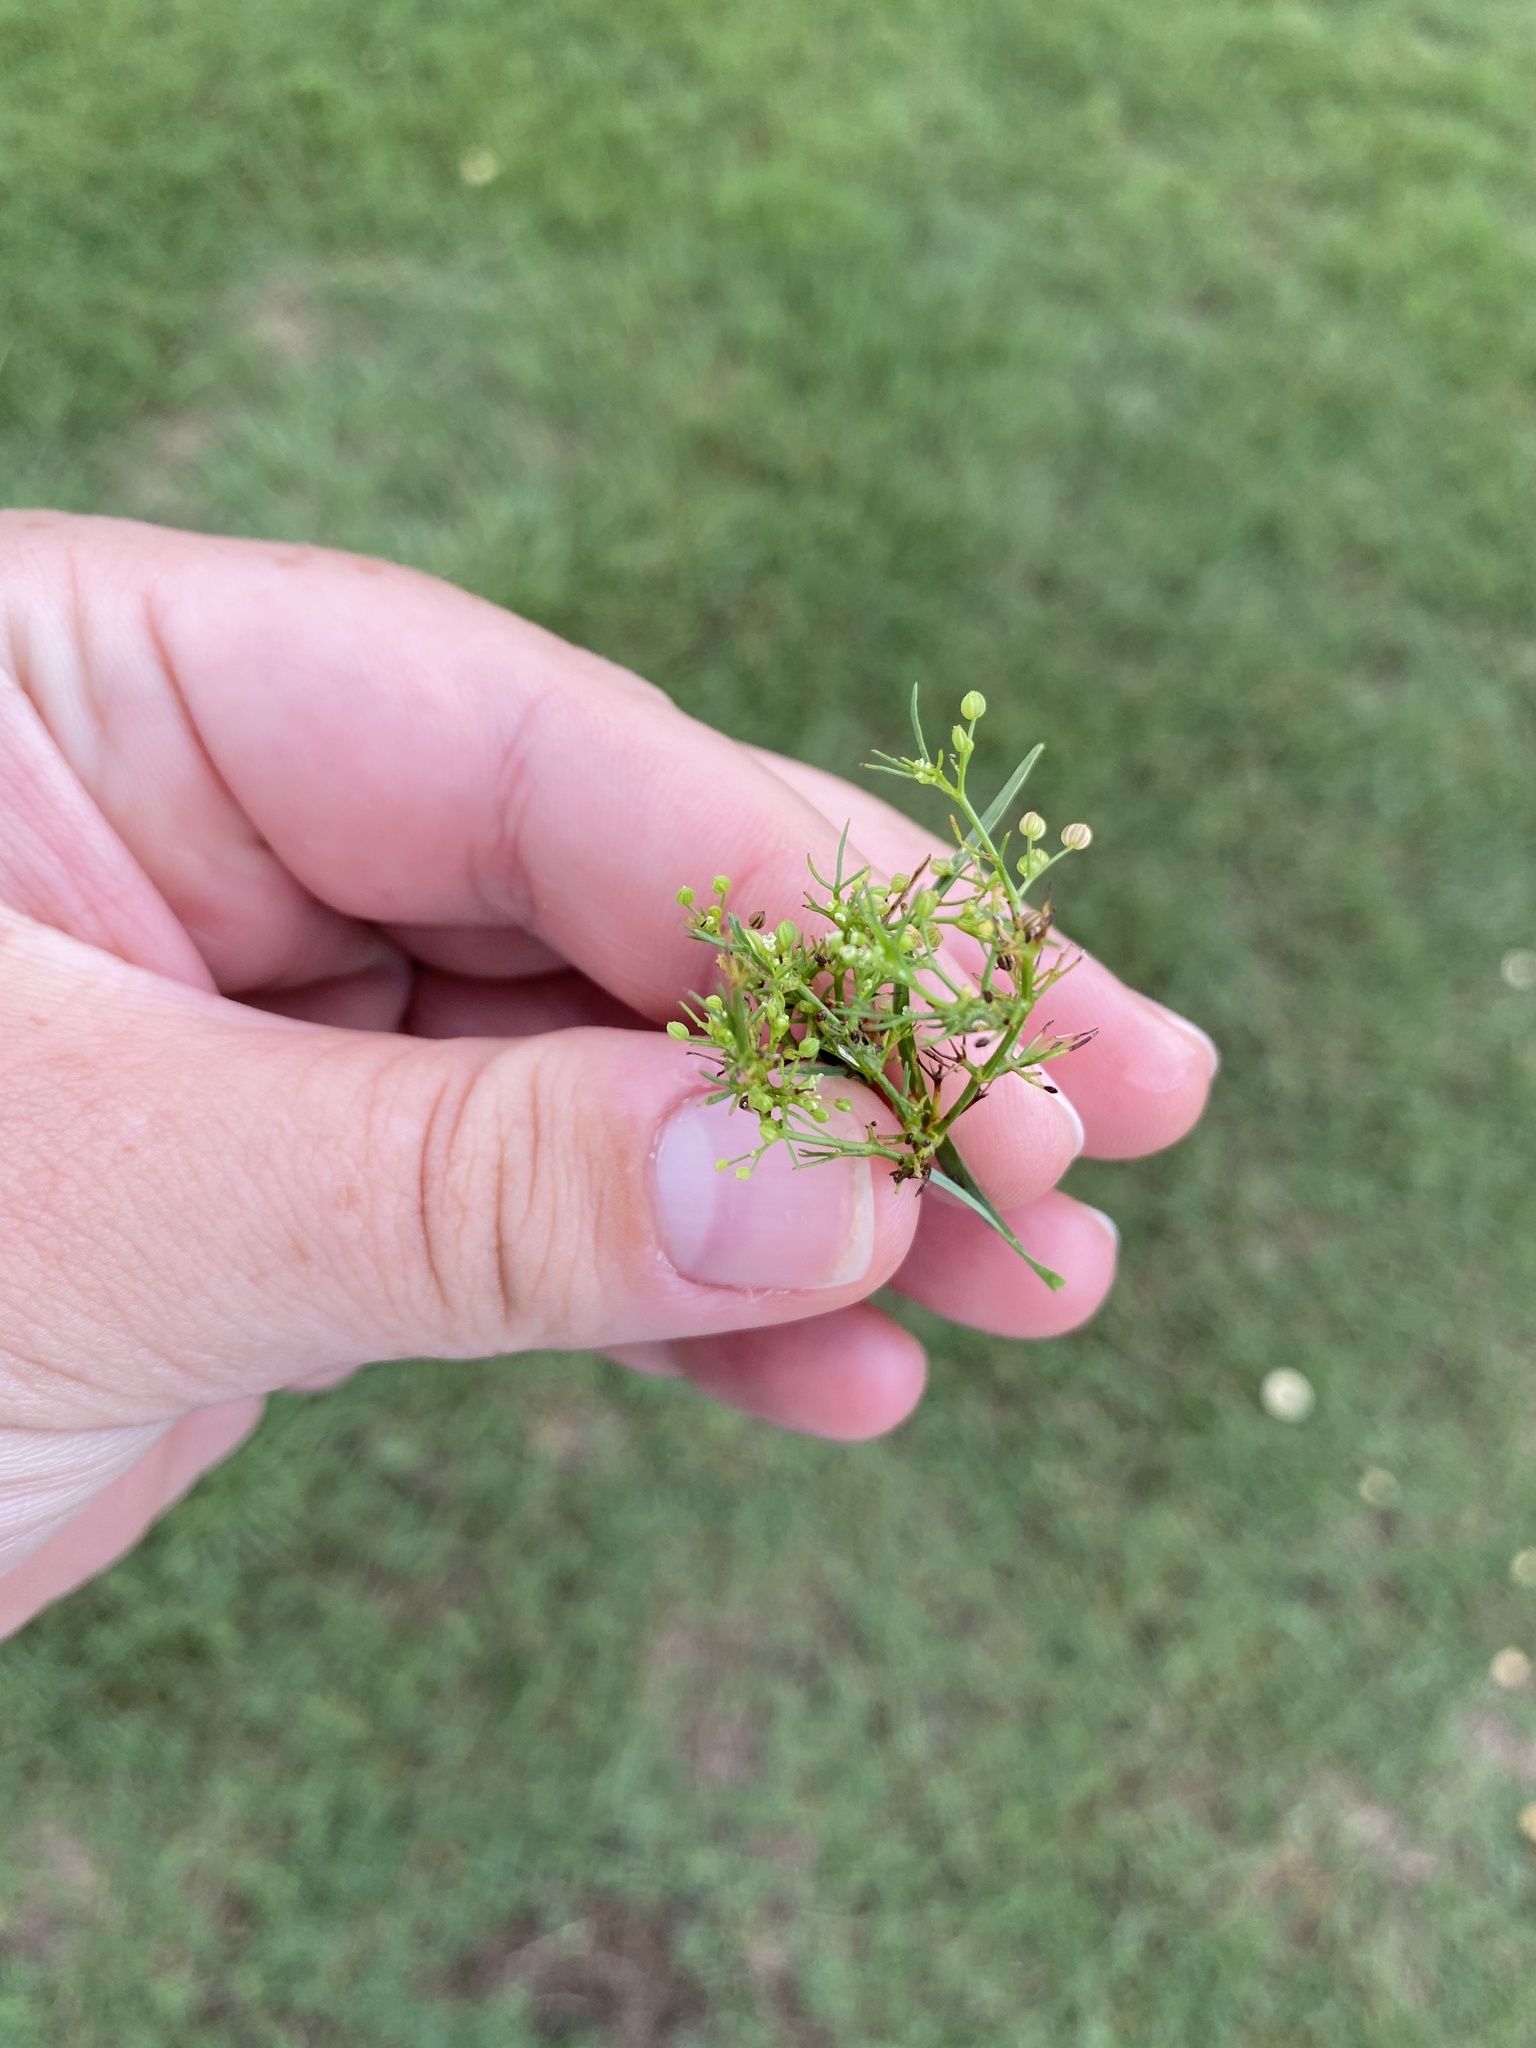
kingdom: Plantae
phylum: Tracheophyta
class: Magnoliopsida
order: Apiales
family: Apiaceae
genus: Cyclospermum
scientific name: Cyclospermum leptophyllum
